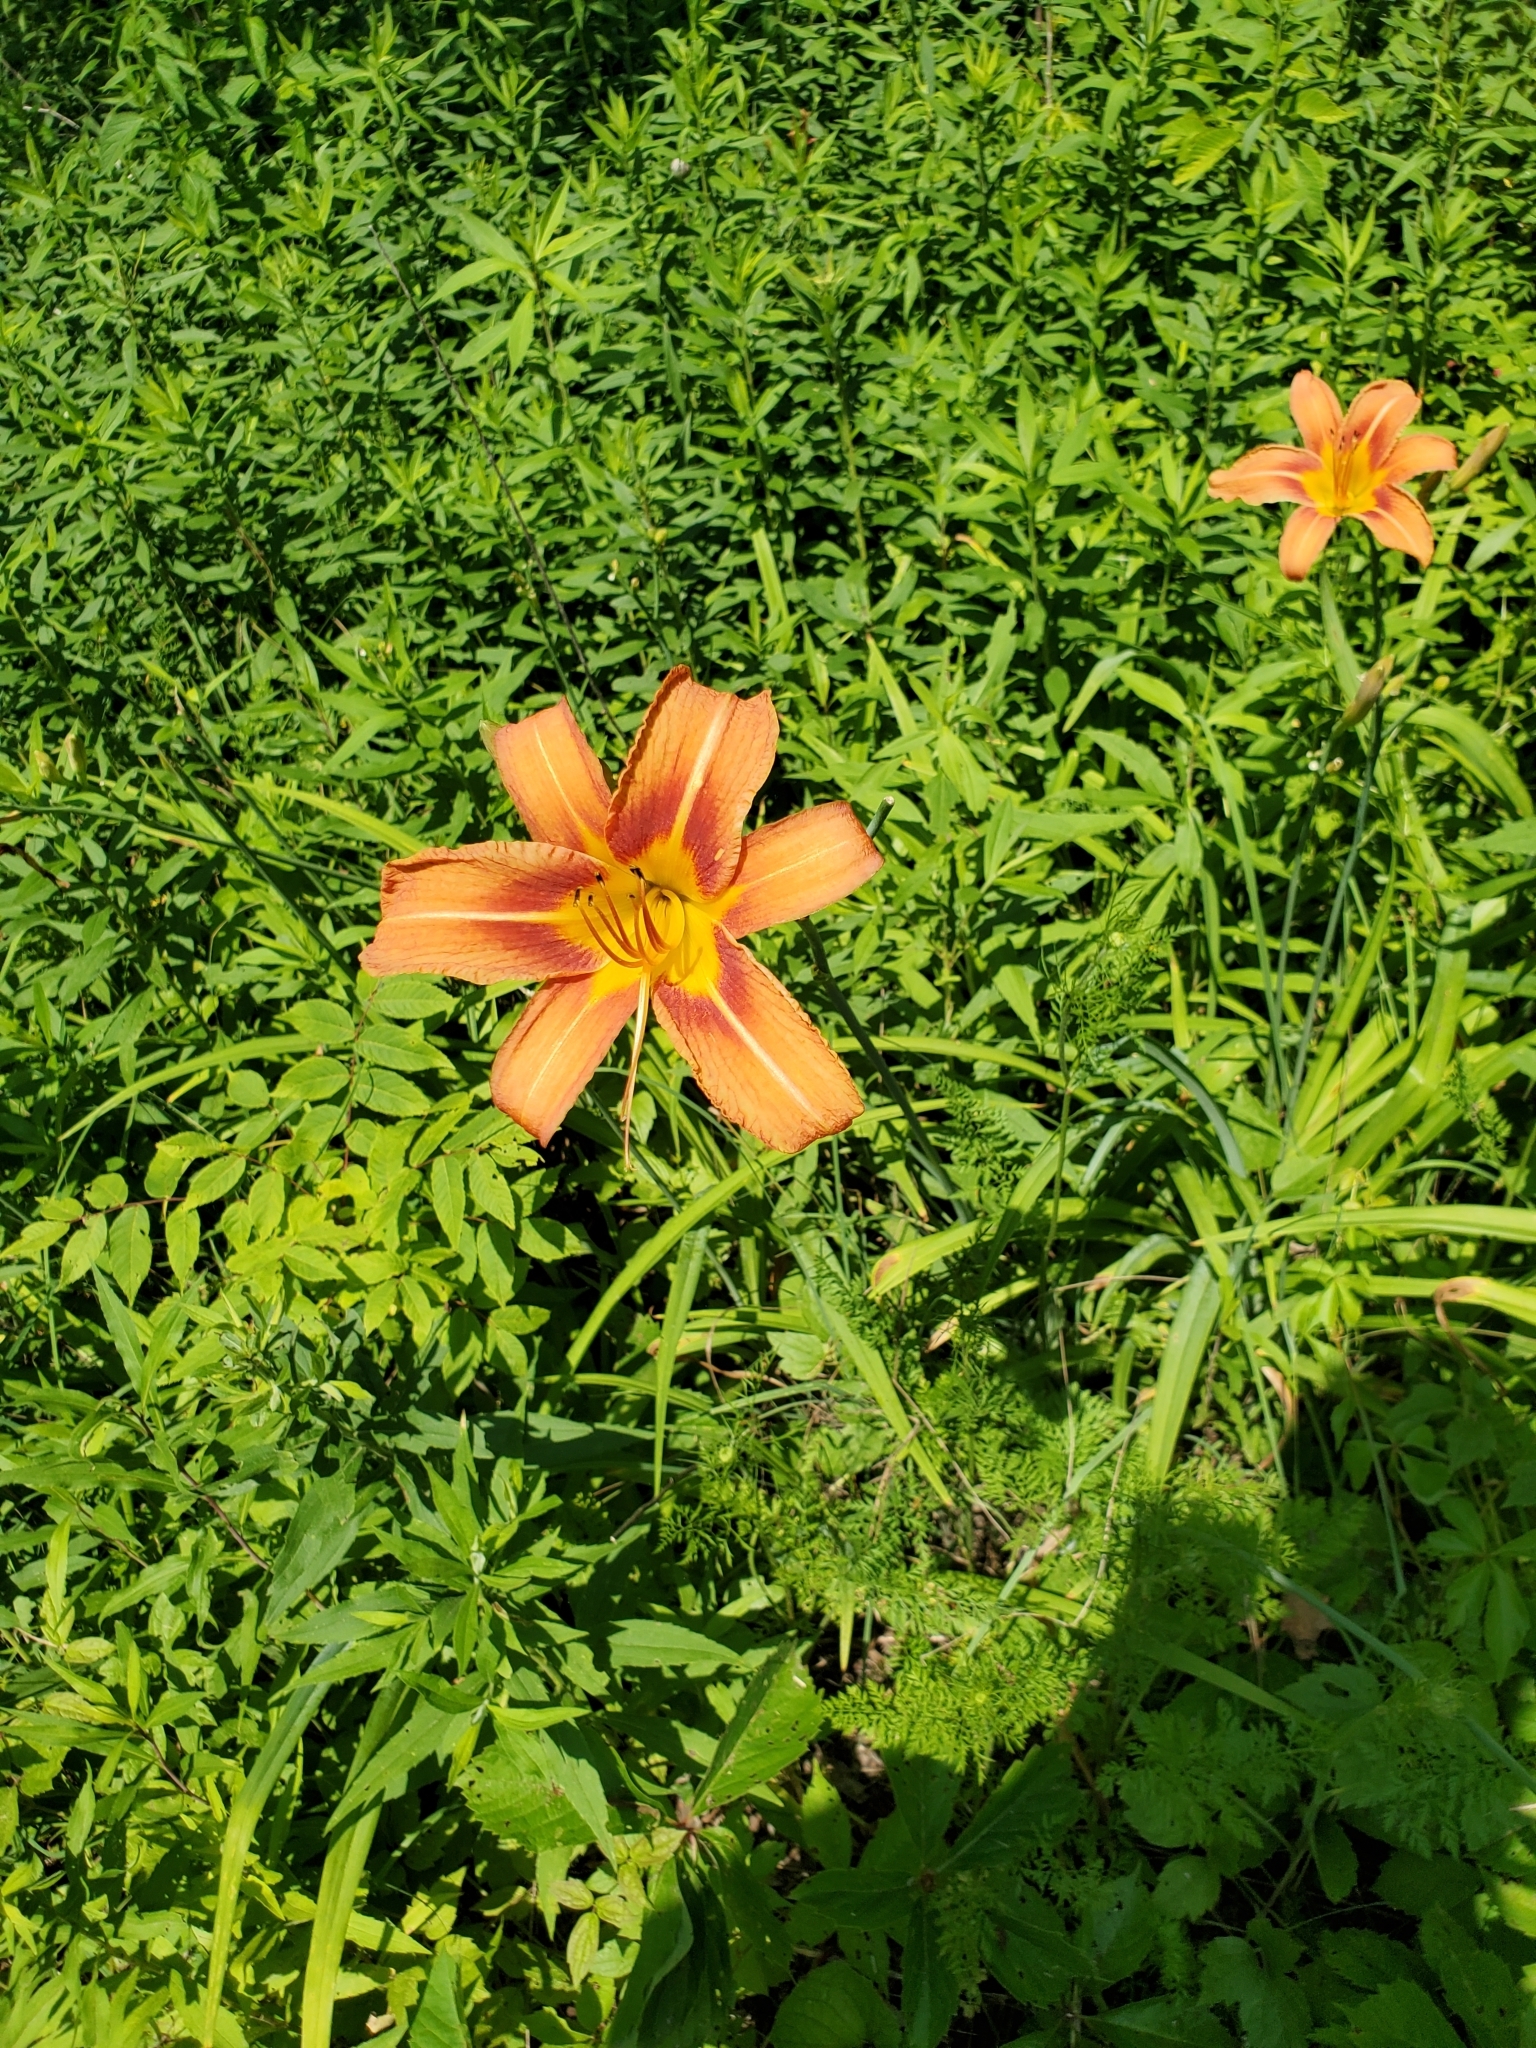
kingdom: Plantae
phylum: Tracheophyta
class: Liliopsida
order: Asparagales
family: Asphodelaceae
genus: Hemerocallis
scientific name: Hemerocallis fulva
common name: Orange day-lily
